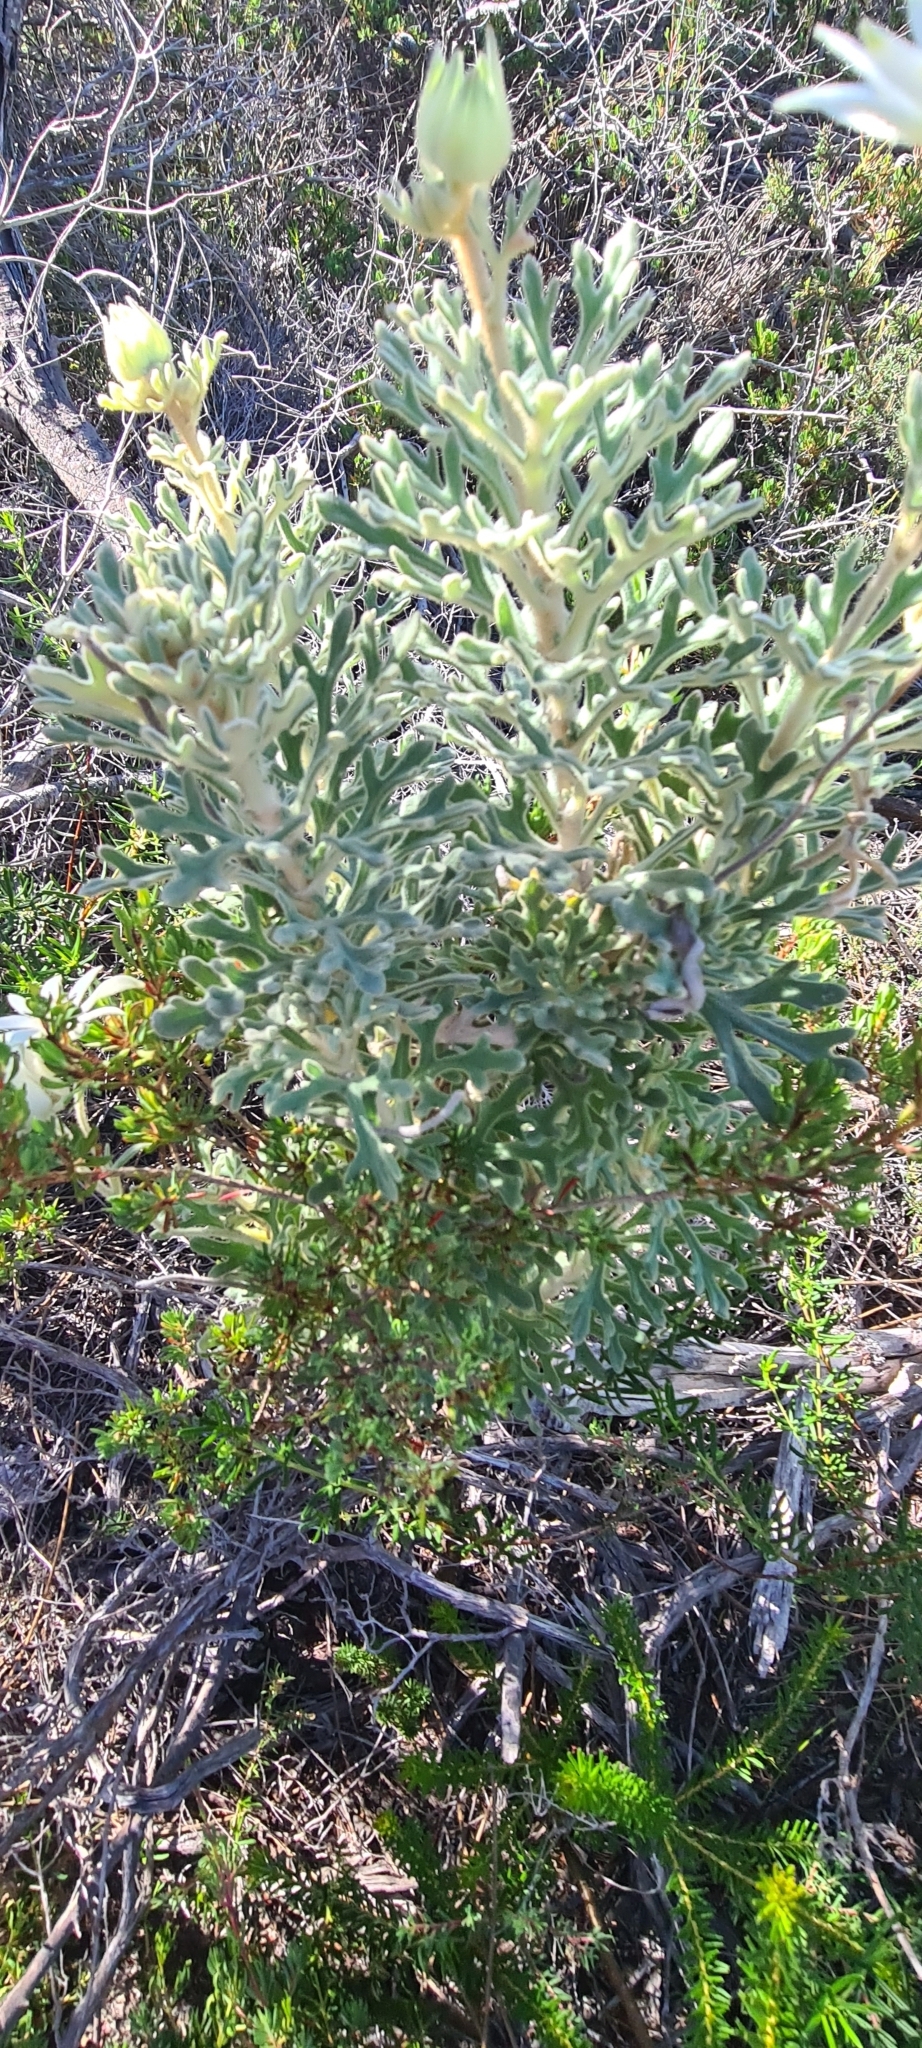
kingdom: Plantae
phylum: Tracheophyta
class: Magnoliopsida
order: Apiales
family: Apiaceae
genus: Actinotus
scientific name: Actinotus helianthi
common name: Flannel-flower
